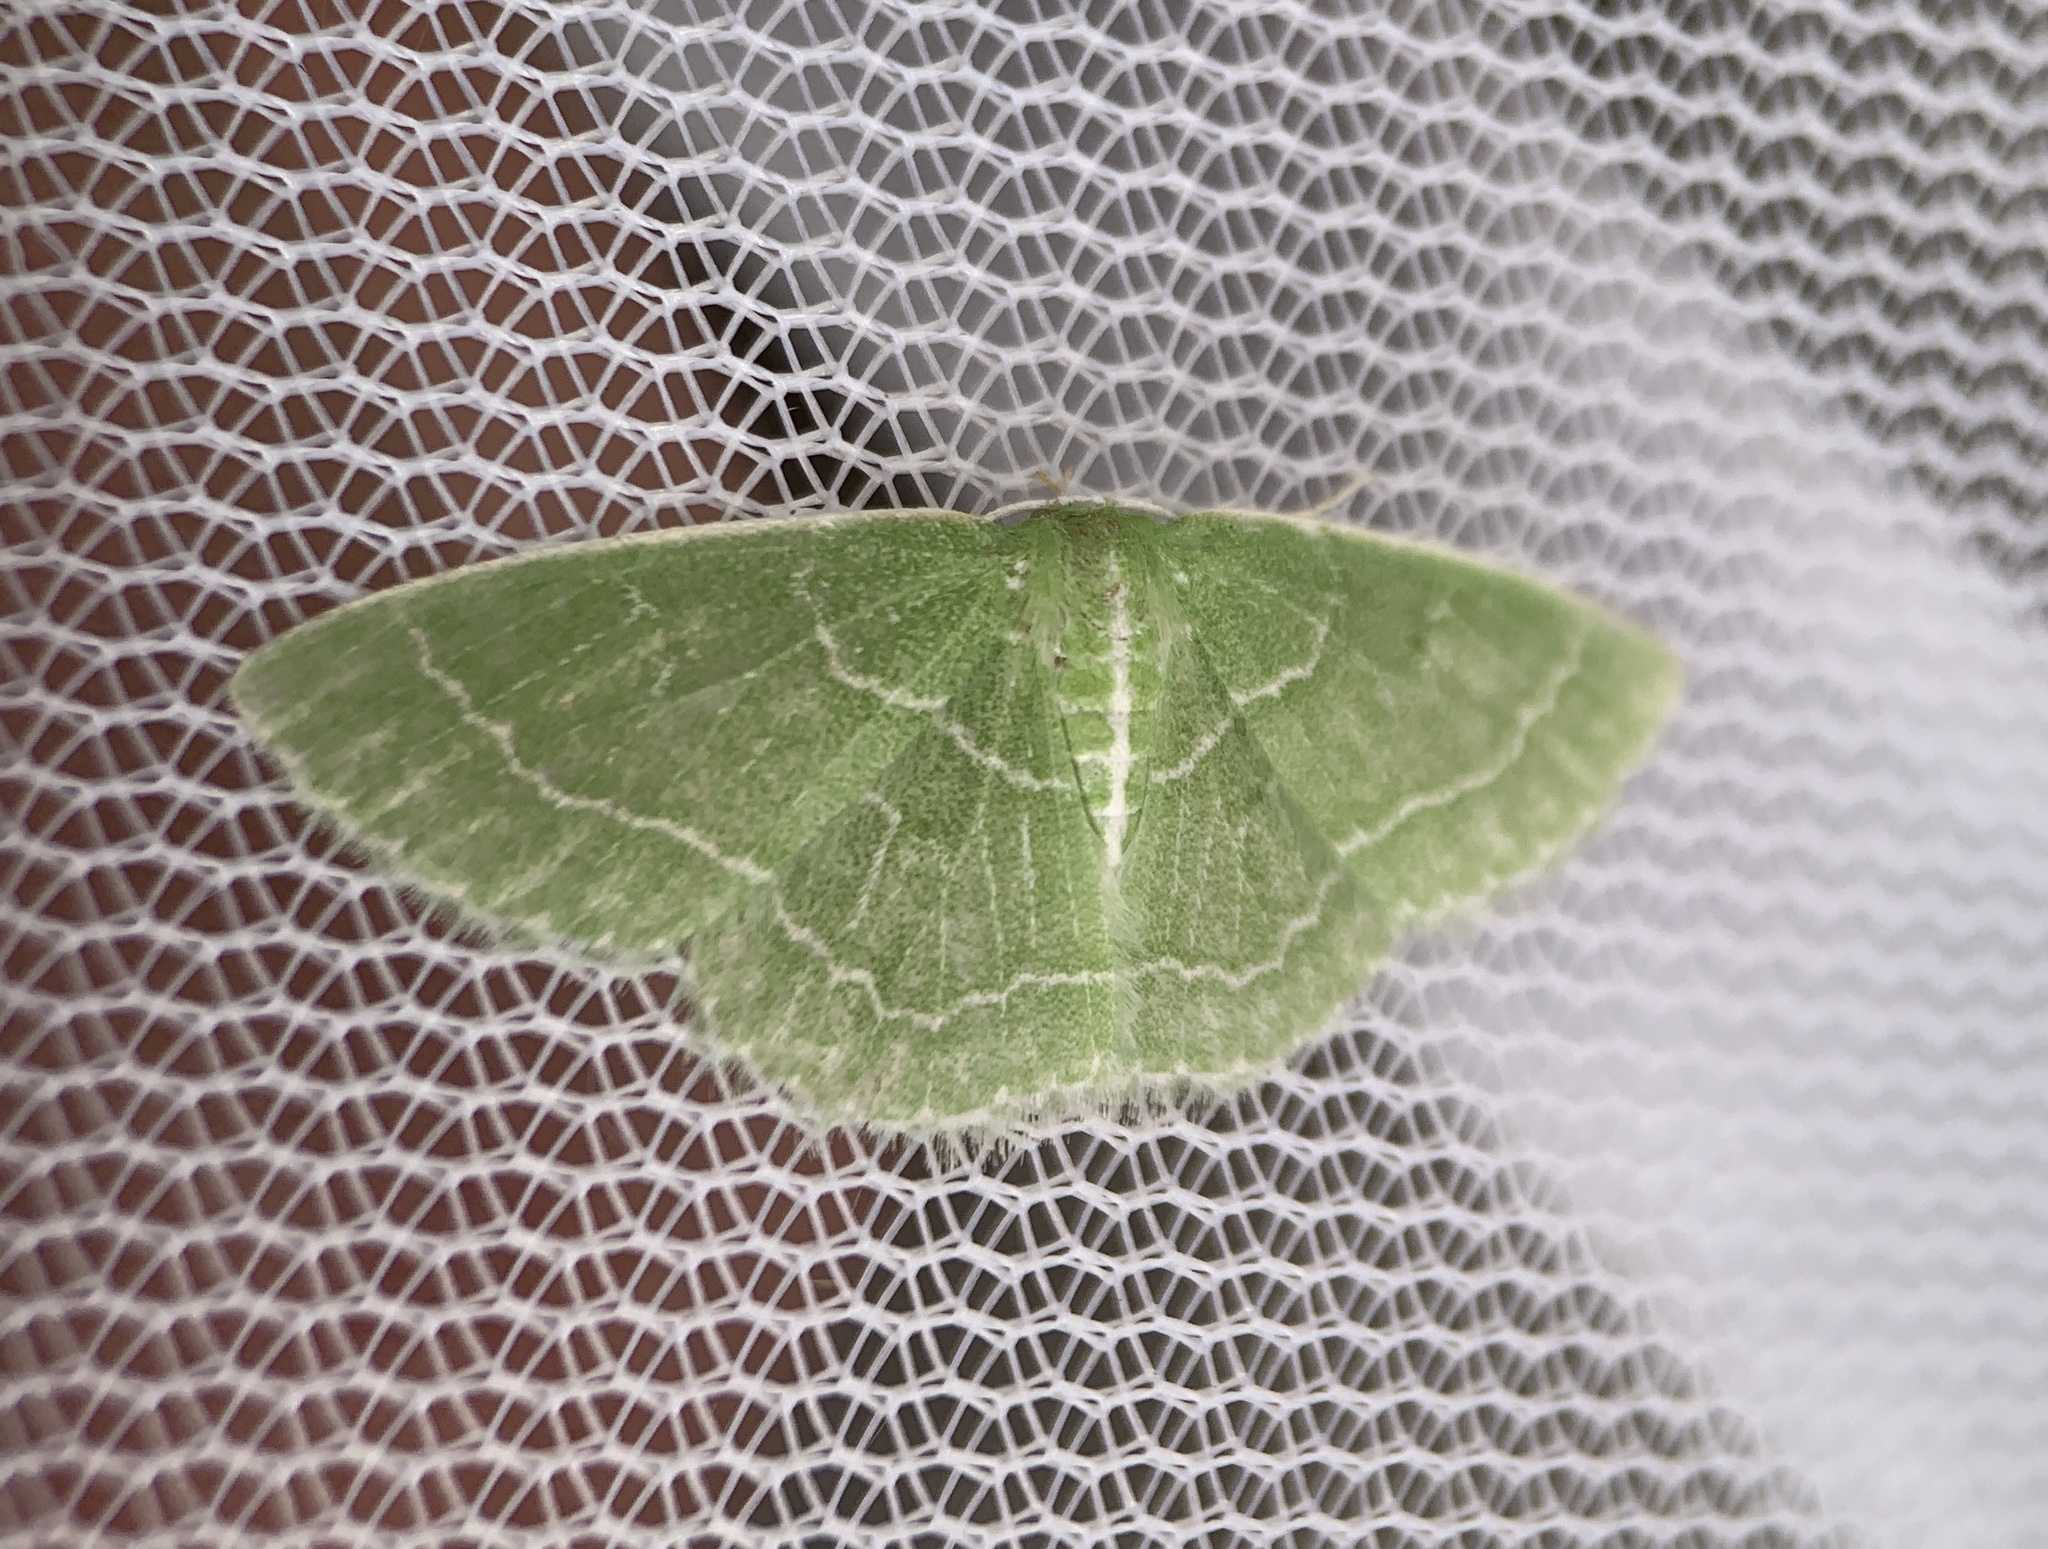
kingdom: Animalia
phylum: Arthropoda
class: Insecta
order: Lepidoptera
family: Geometridae
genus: Synchlora
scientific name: Synchlora aerata
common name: Wavy-lined emerald
